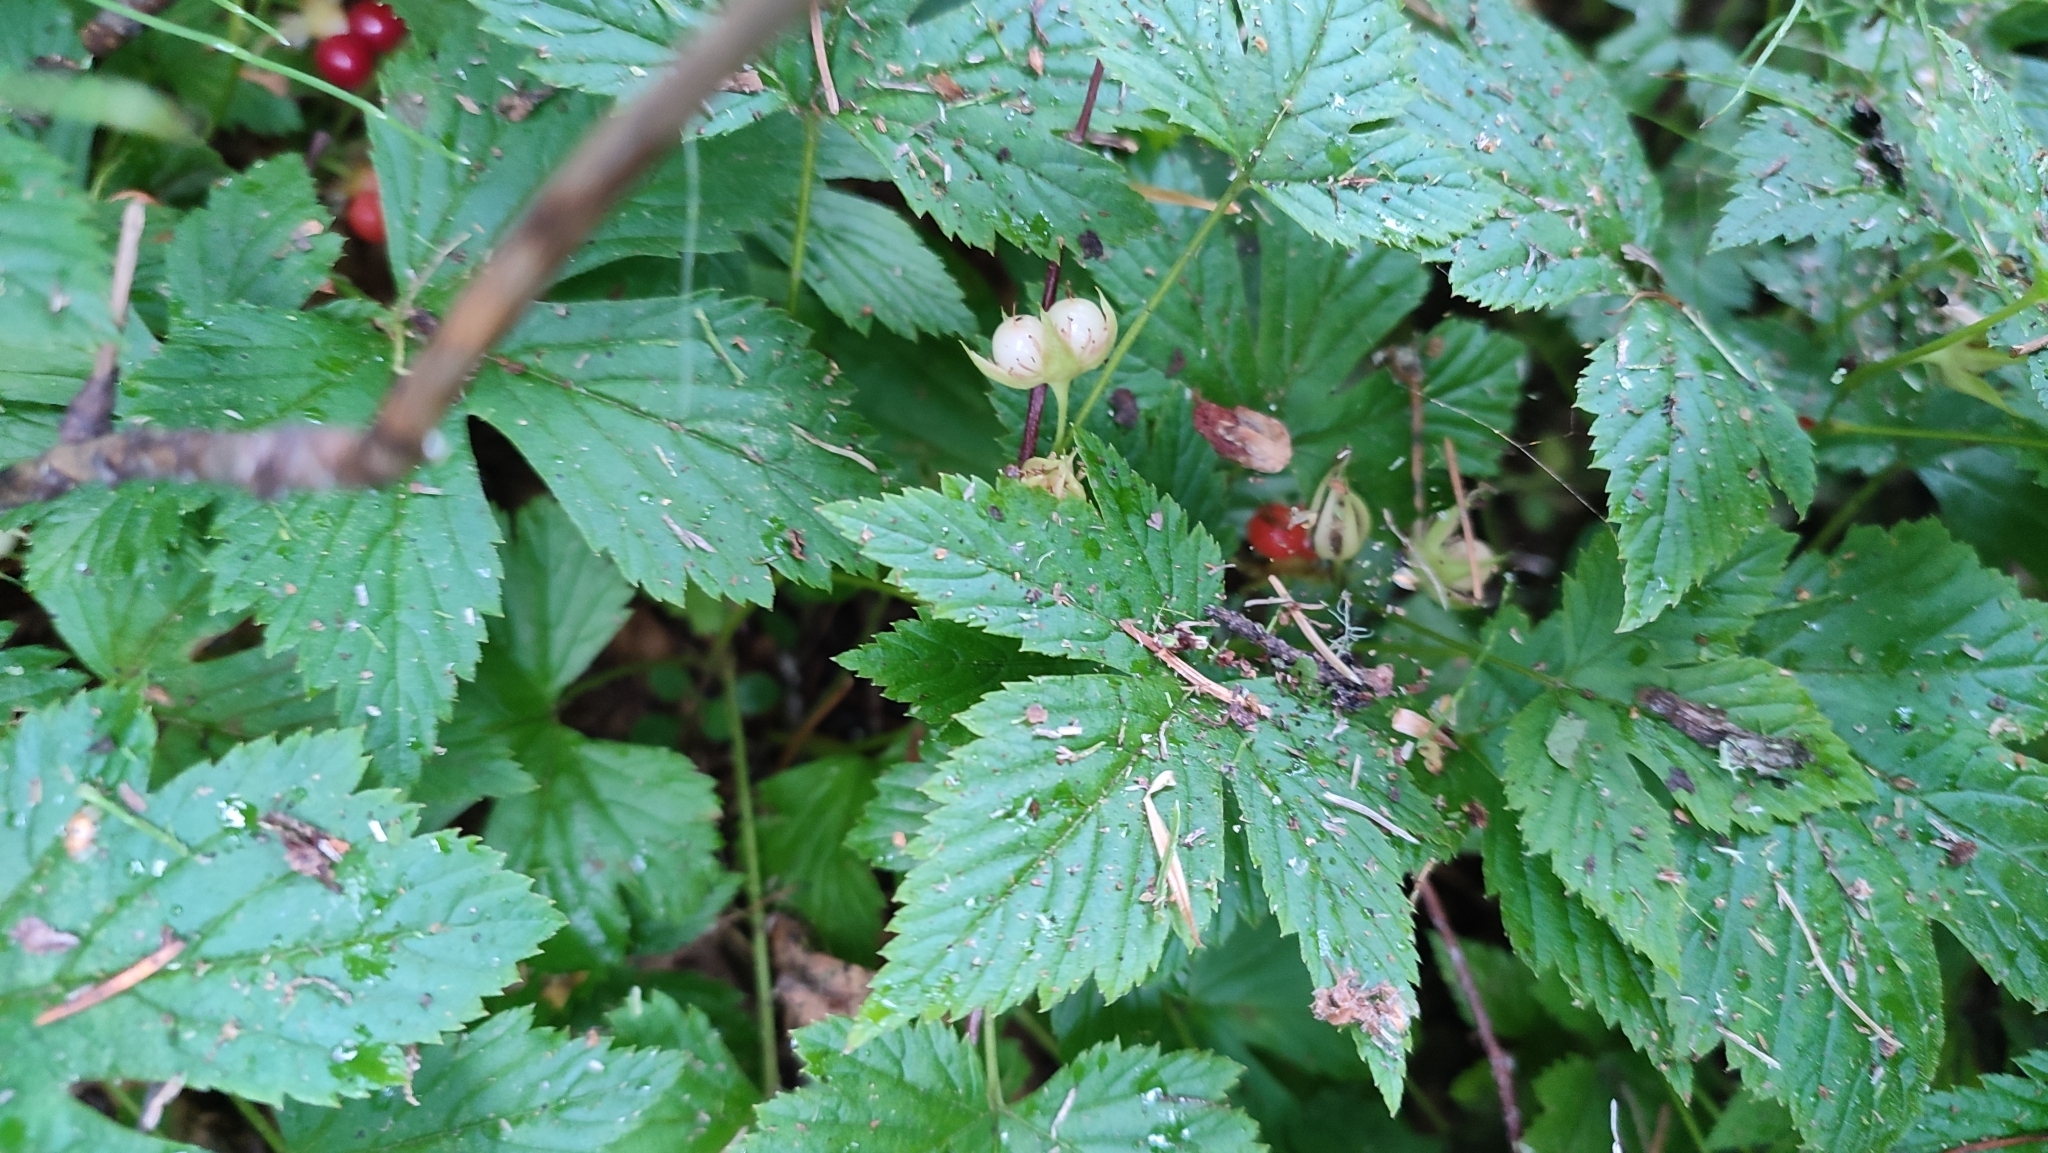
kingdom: Plantae
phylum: Tracheophyta
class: Magnoliopsida
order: Rosales
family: Rosaceae
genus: Rubus
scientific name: Rubus saxatilis
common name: Stone bramble
